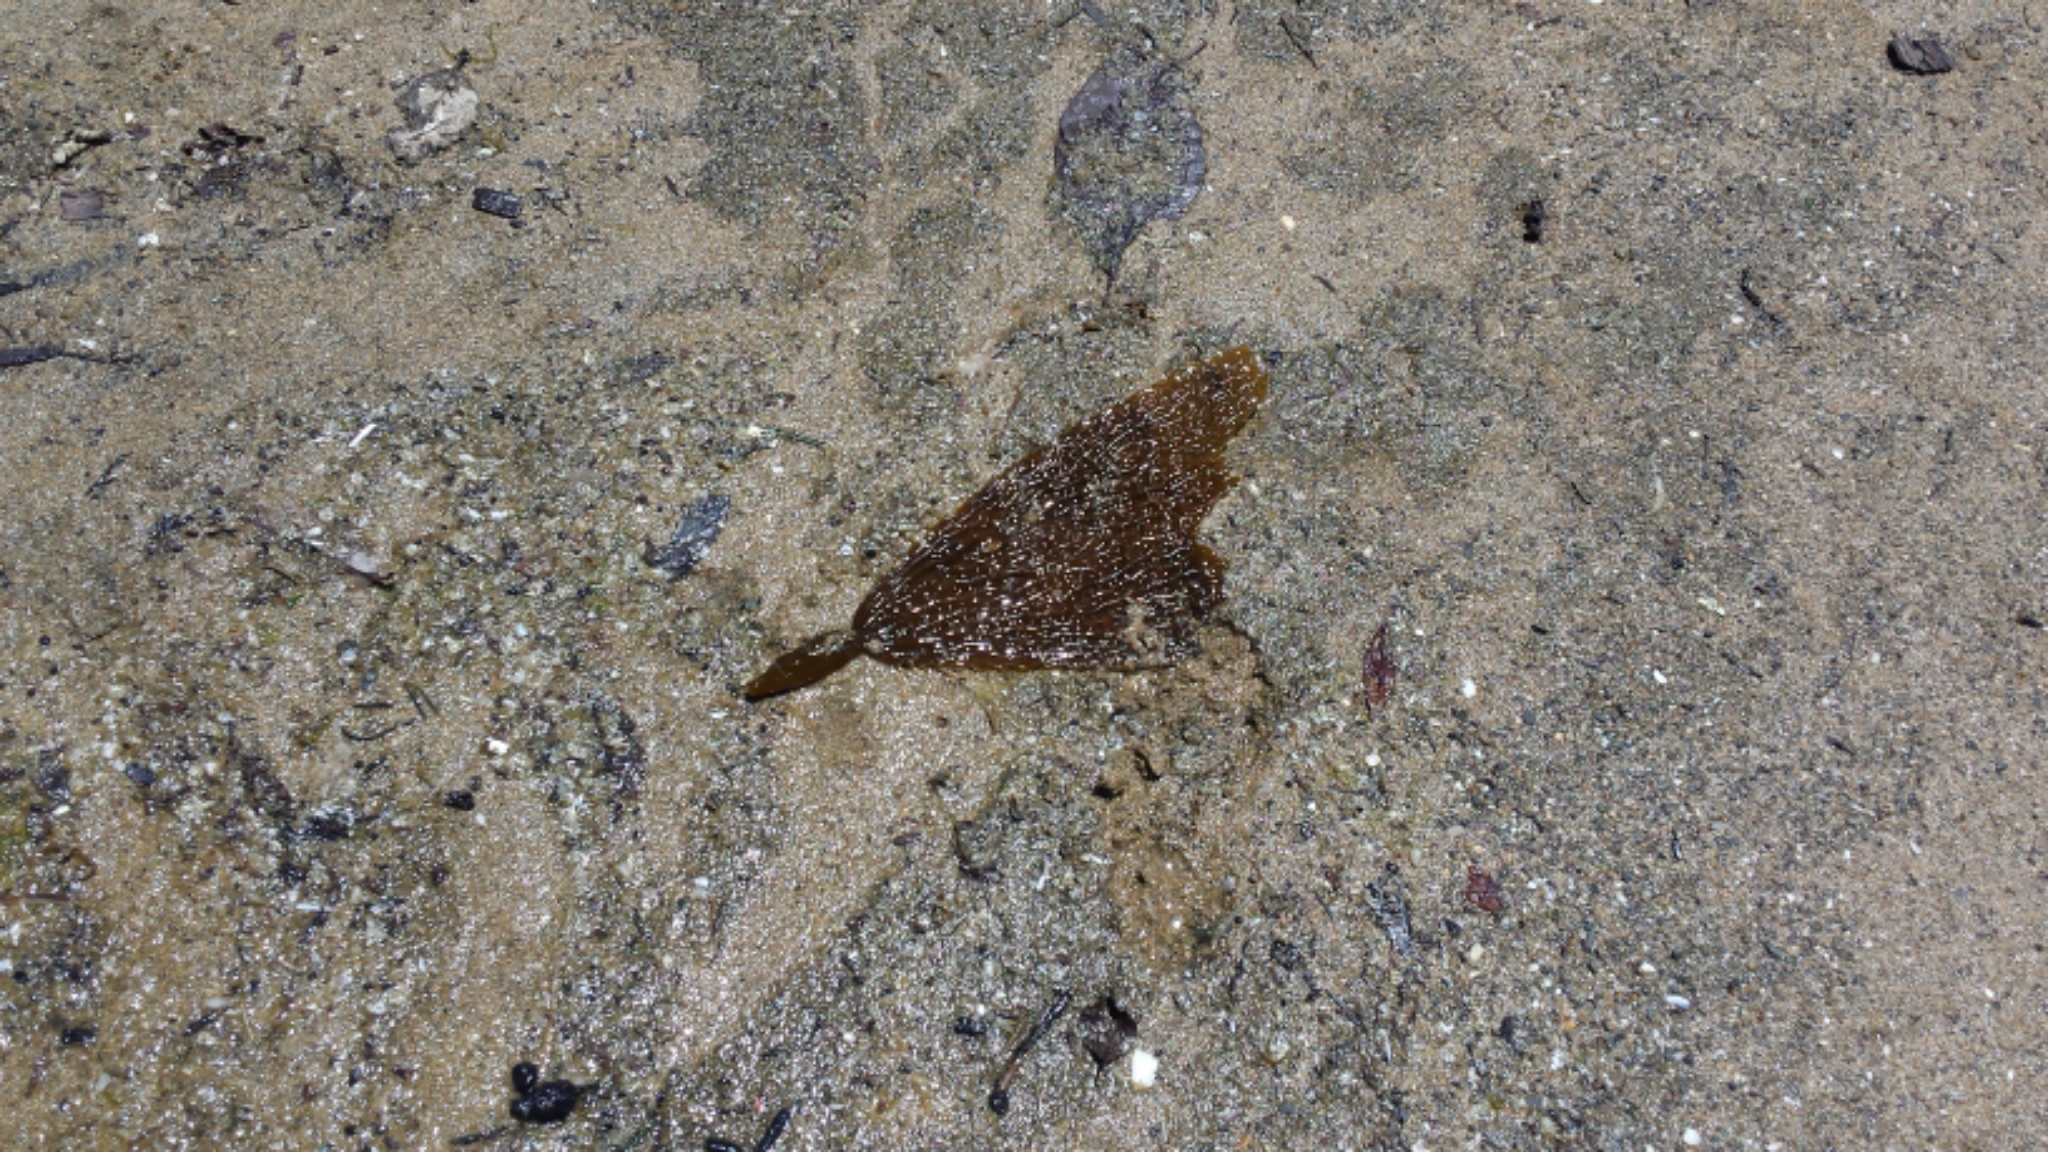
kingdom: Chromista
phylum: Ochrophyta
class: Phaeophyceae
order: Laminariales
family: Laminariaceae
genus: Macrocystis
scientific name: Macrocystis pyrifera
